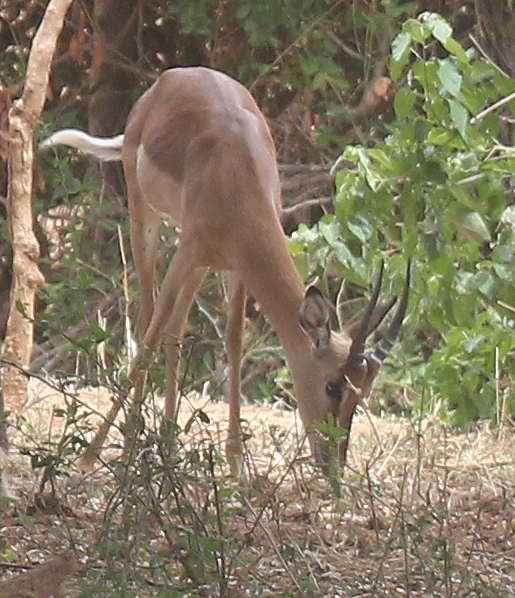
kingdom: Animalia
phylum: Chordata
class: Mammalia
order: Artiodactyla
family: Bovidae
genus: Aepyceros
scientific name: Aepyceros melampus
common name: Impala
